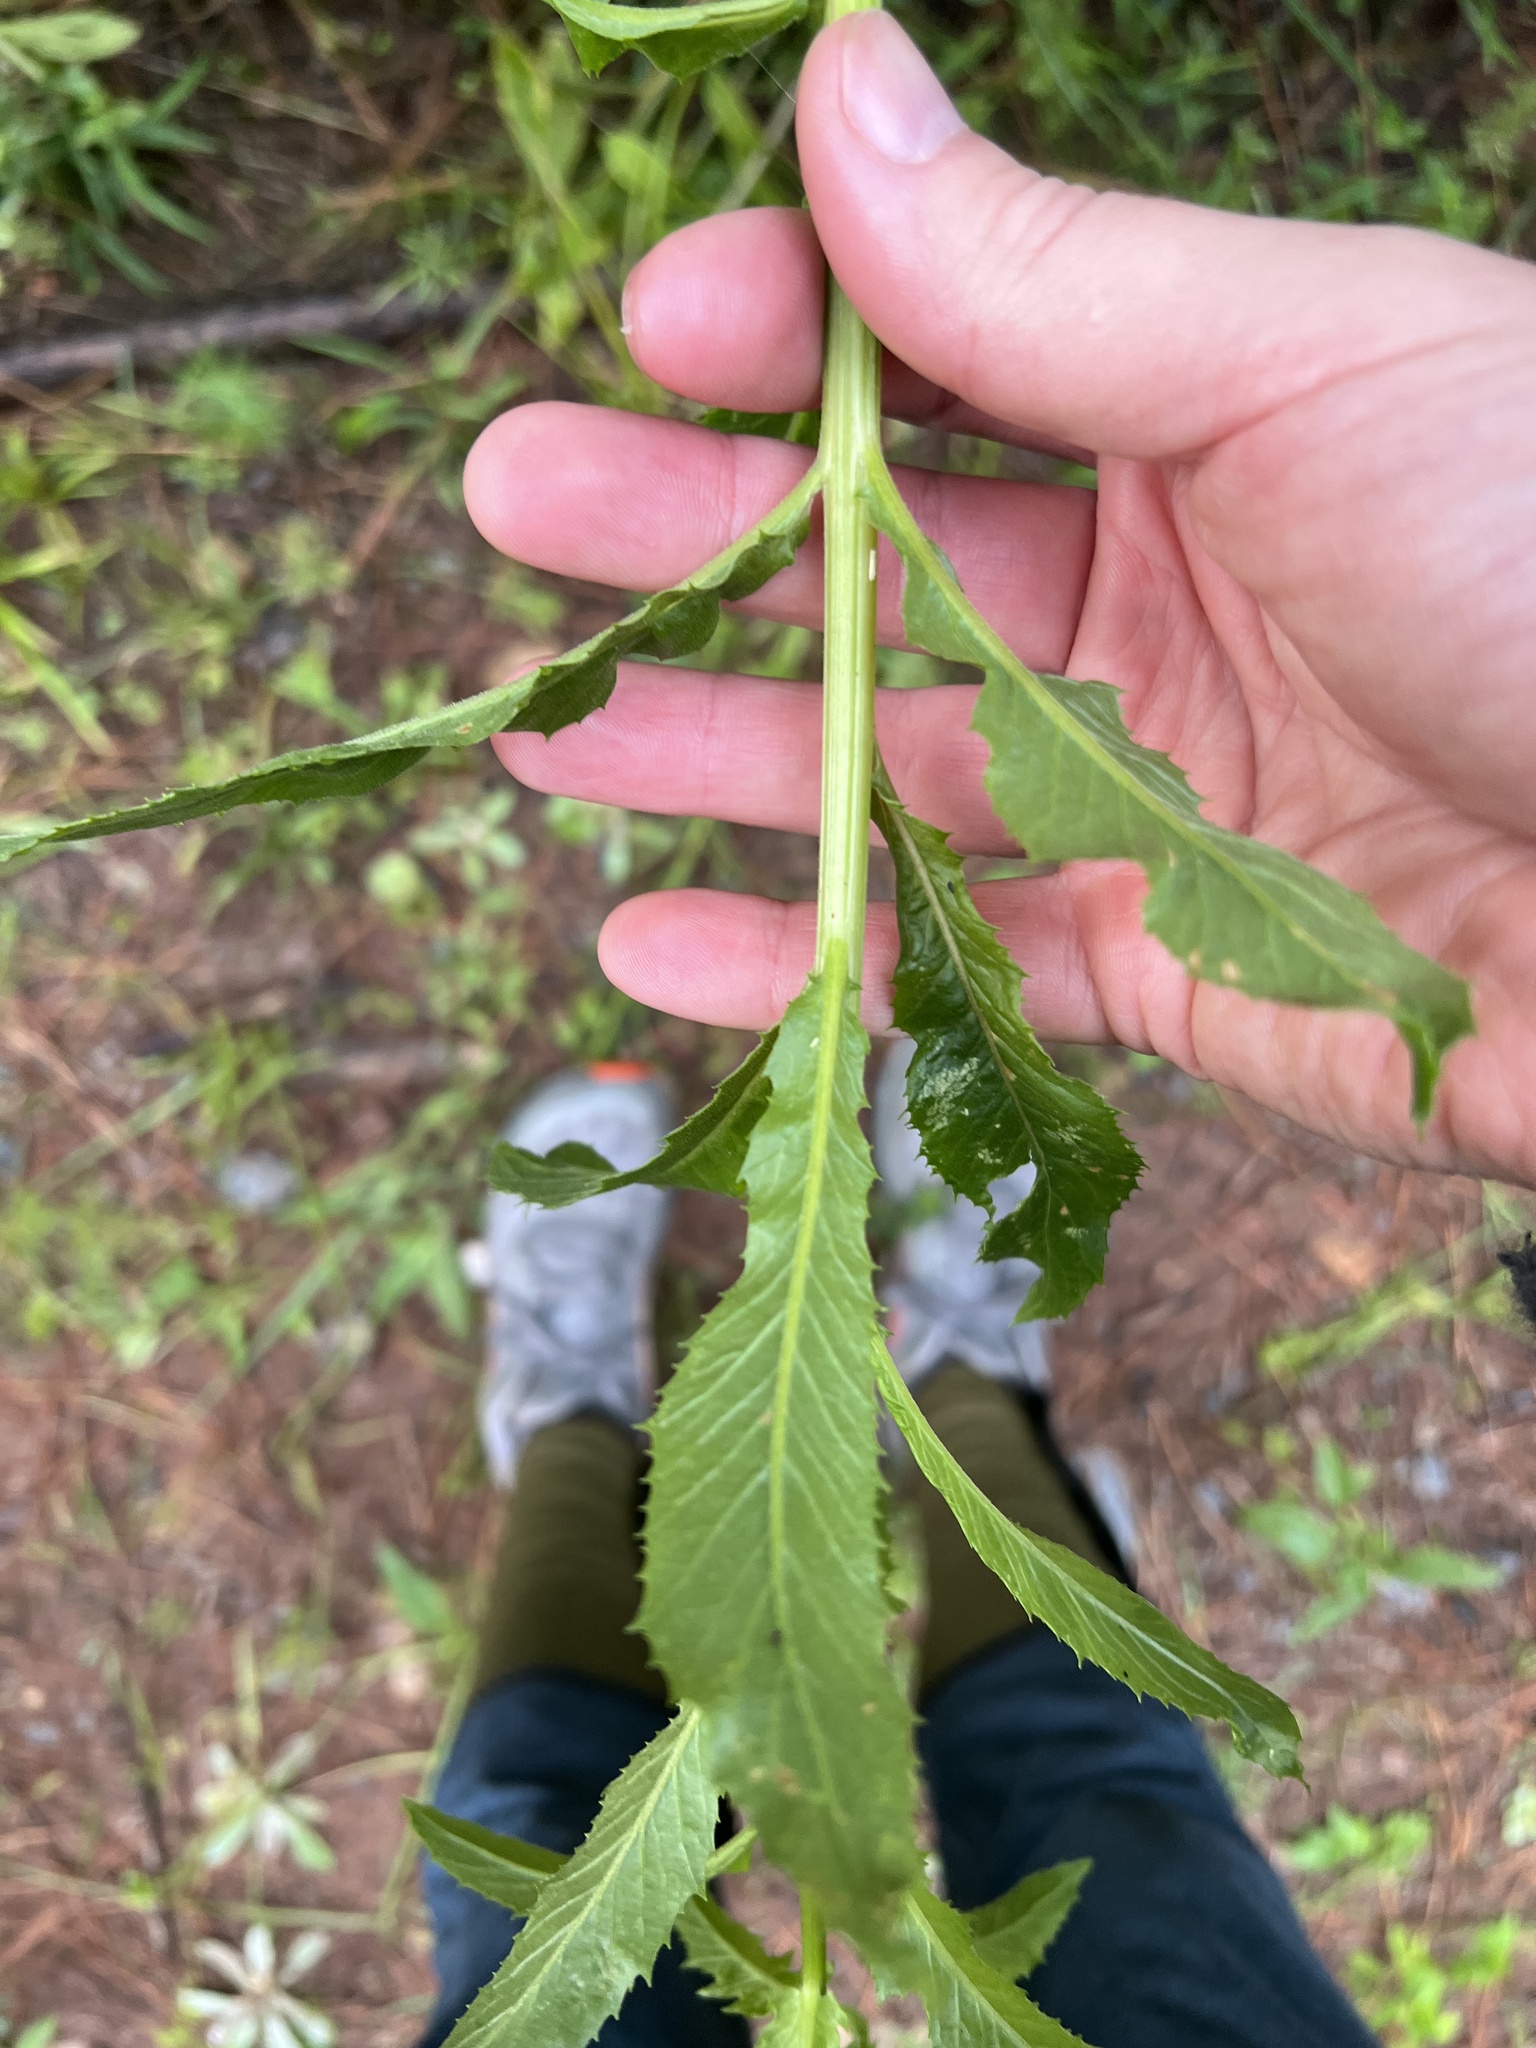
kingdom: Plantae
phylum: Tracheophyta
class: Magnoliopsida
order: Asterales
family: Asteraceae
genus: Erechtites
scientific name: Erechtites hieraciifolius
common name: American burnweed
